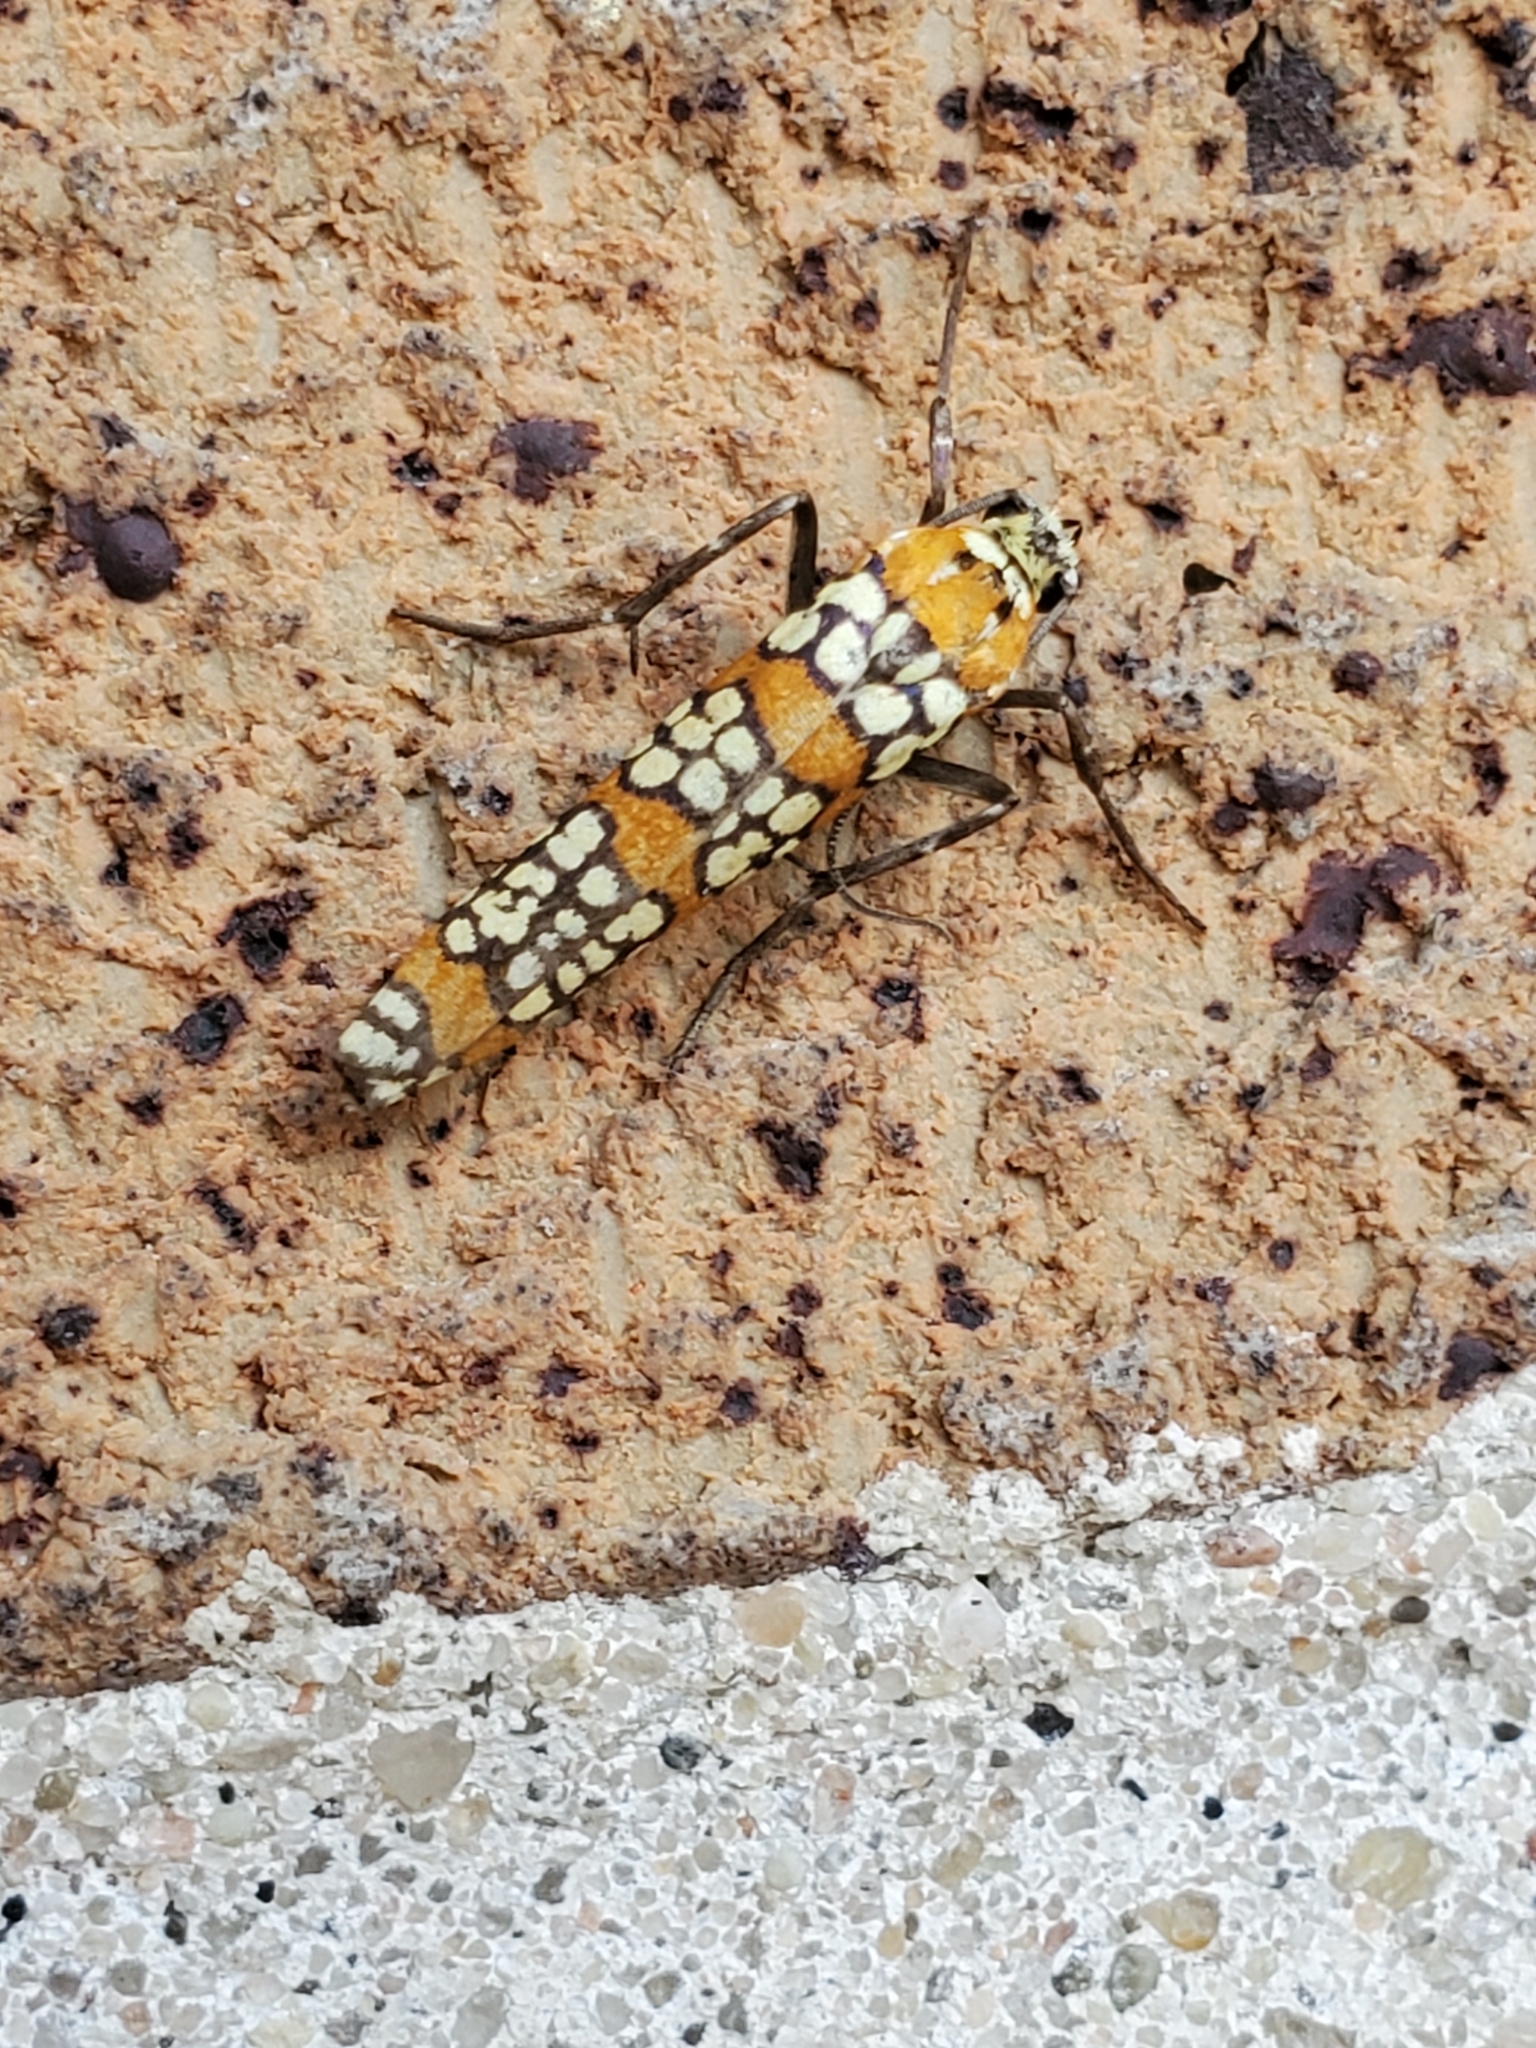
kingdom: Animalia
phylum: Arthropoda
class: Insecta
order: Lepidoptera
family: Attevidae
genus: Atteva
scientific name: Atteva punctella
